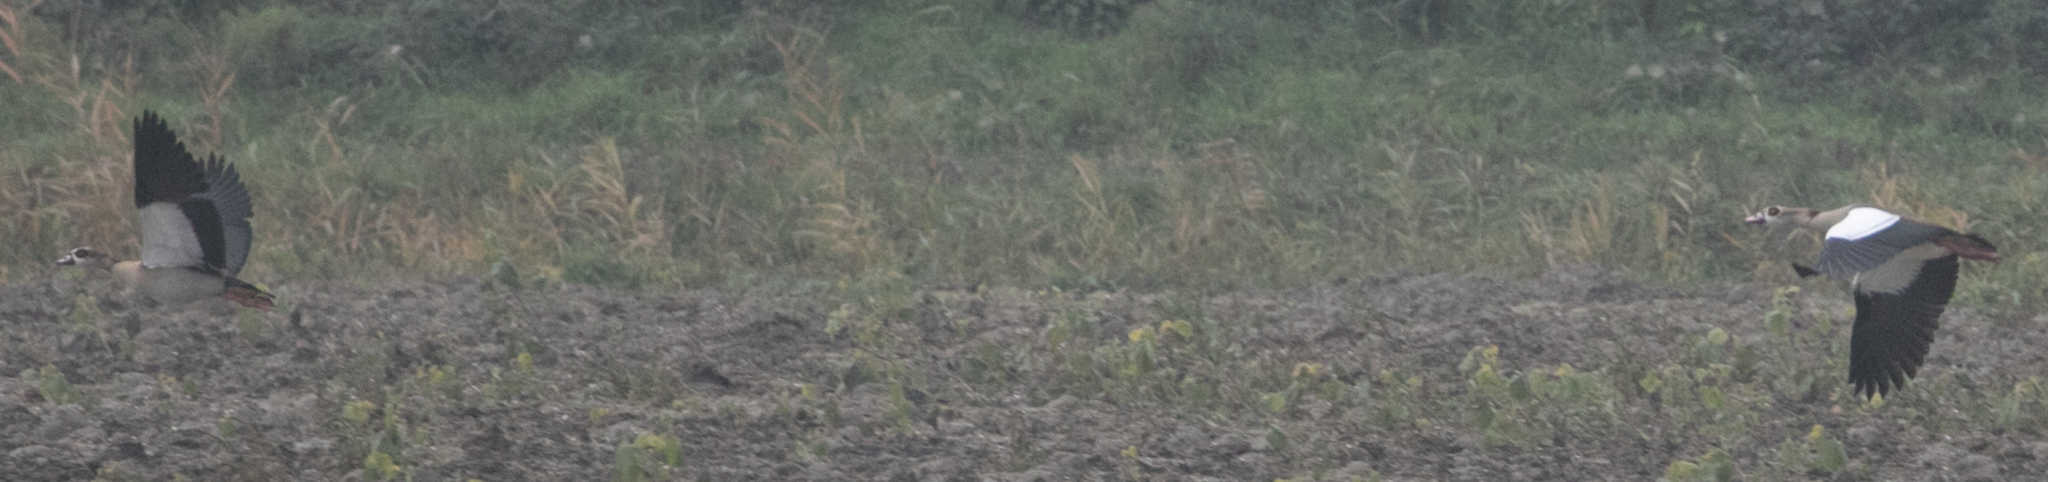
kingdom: Animalia
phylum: Chordata
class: Aves
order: Anseriformes
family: Anatidae
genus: Alopochen
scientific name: Alopochen aegyptiaca
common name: Egyptian goose
